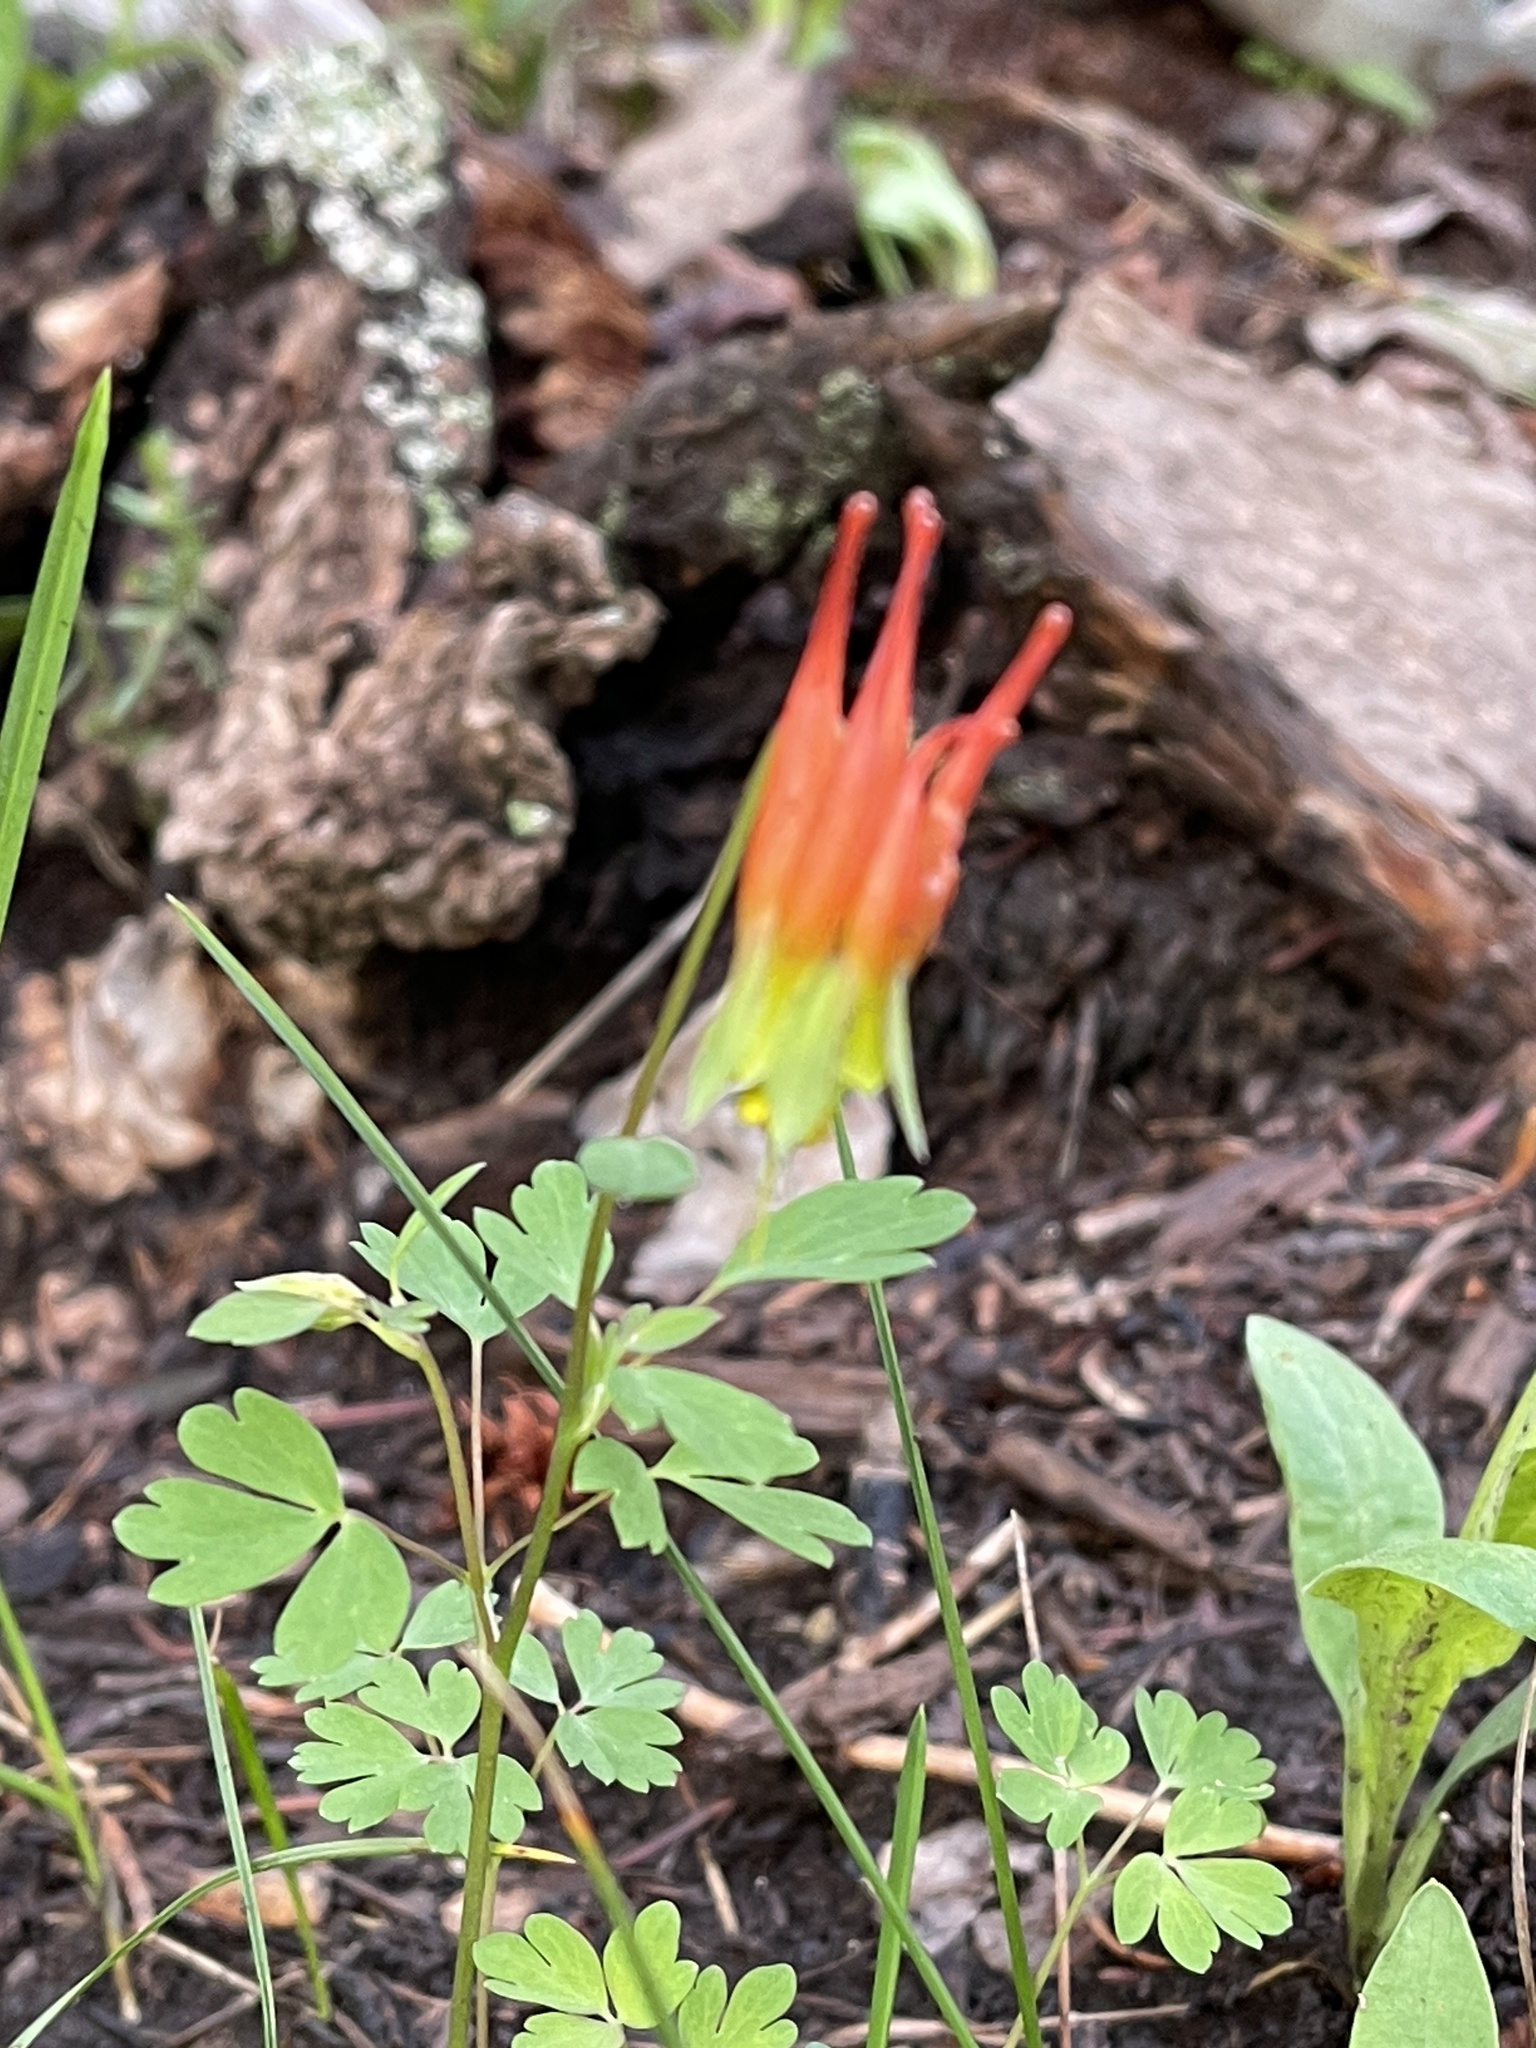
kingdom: Plantae
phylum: Tracheophyta
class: Magnoliopsida
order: Ranunculales
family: Ranunculaceae
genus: Aquilegia
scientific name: Aquilegia elegantula
